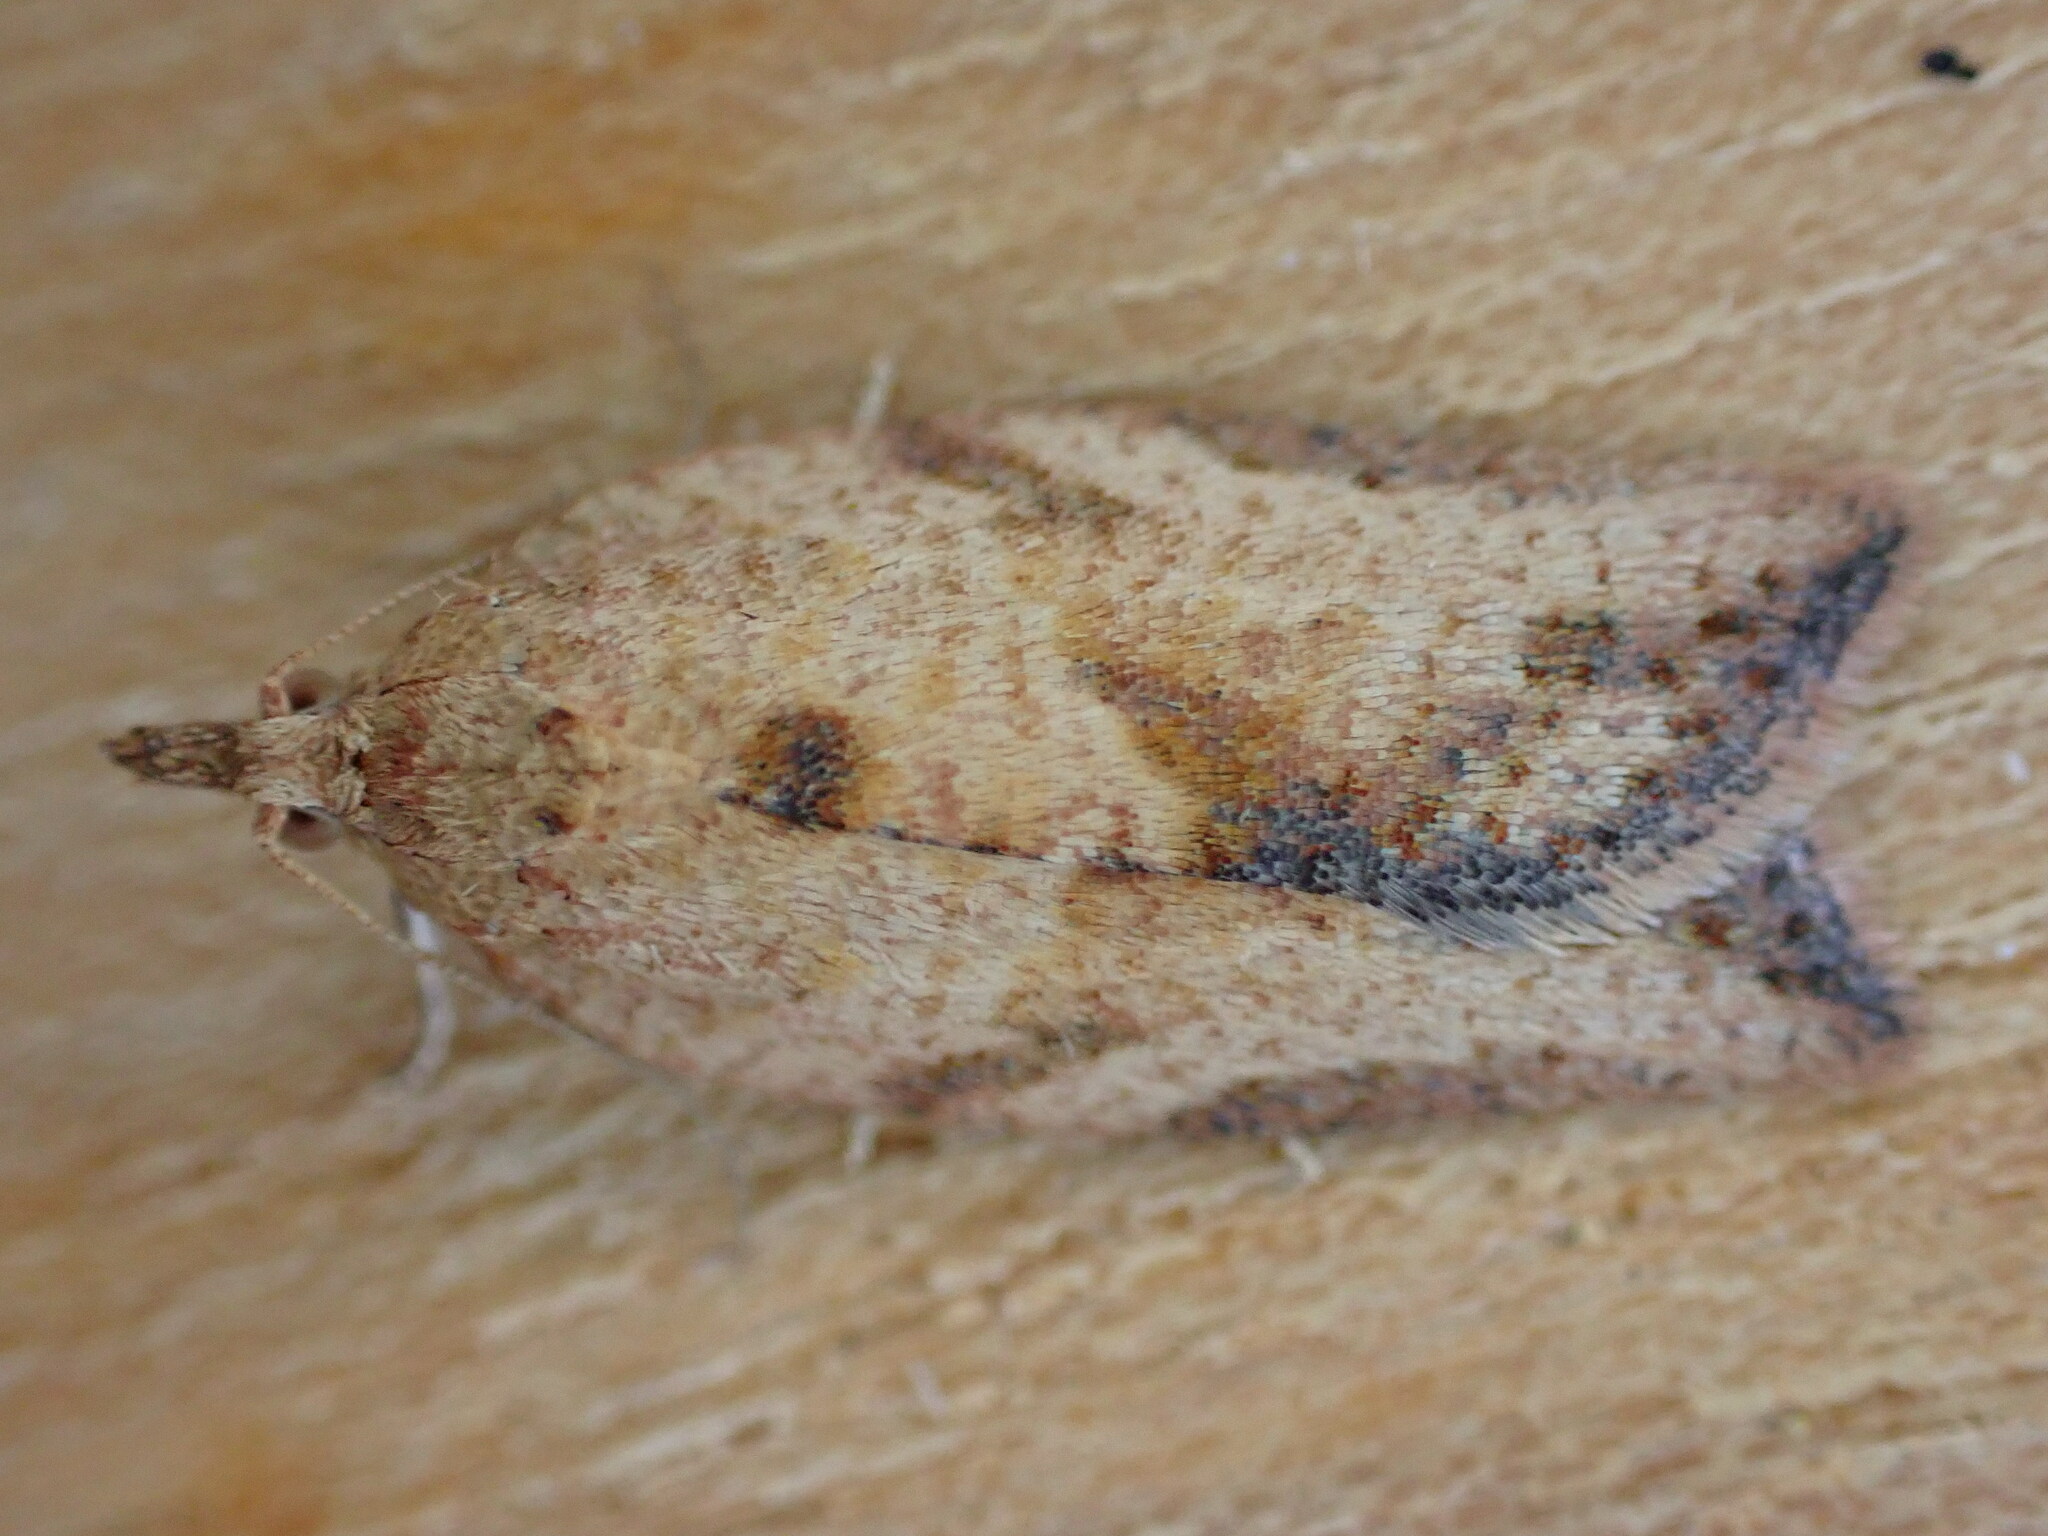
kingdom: Animalia
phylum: Arthropoda
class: Insecta
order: Lepidoptera
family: Tortricidae
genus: Epiphyas
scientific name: Epiphyas postvittana
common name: Light brown apple moth
